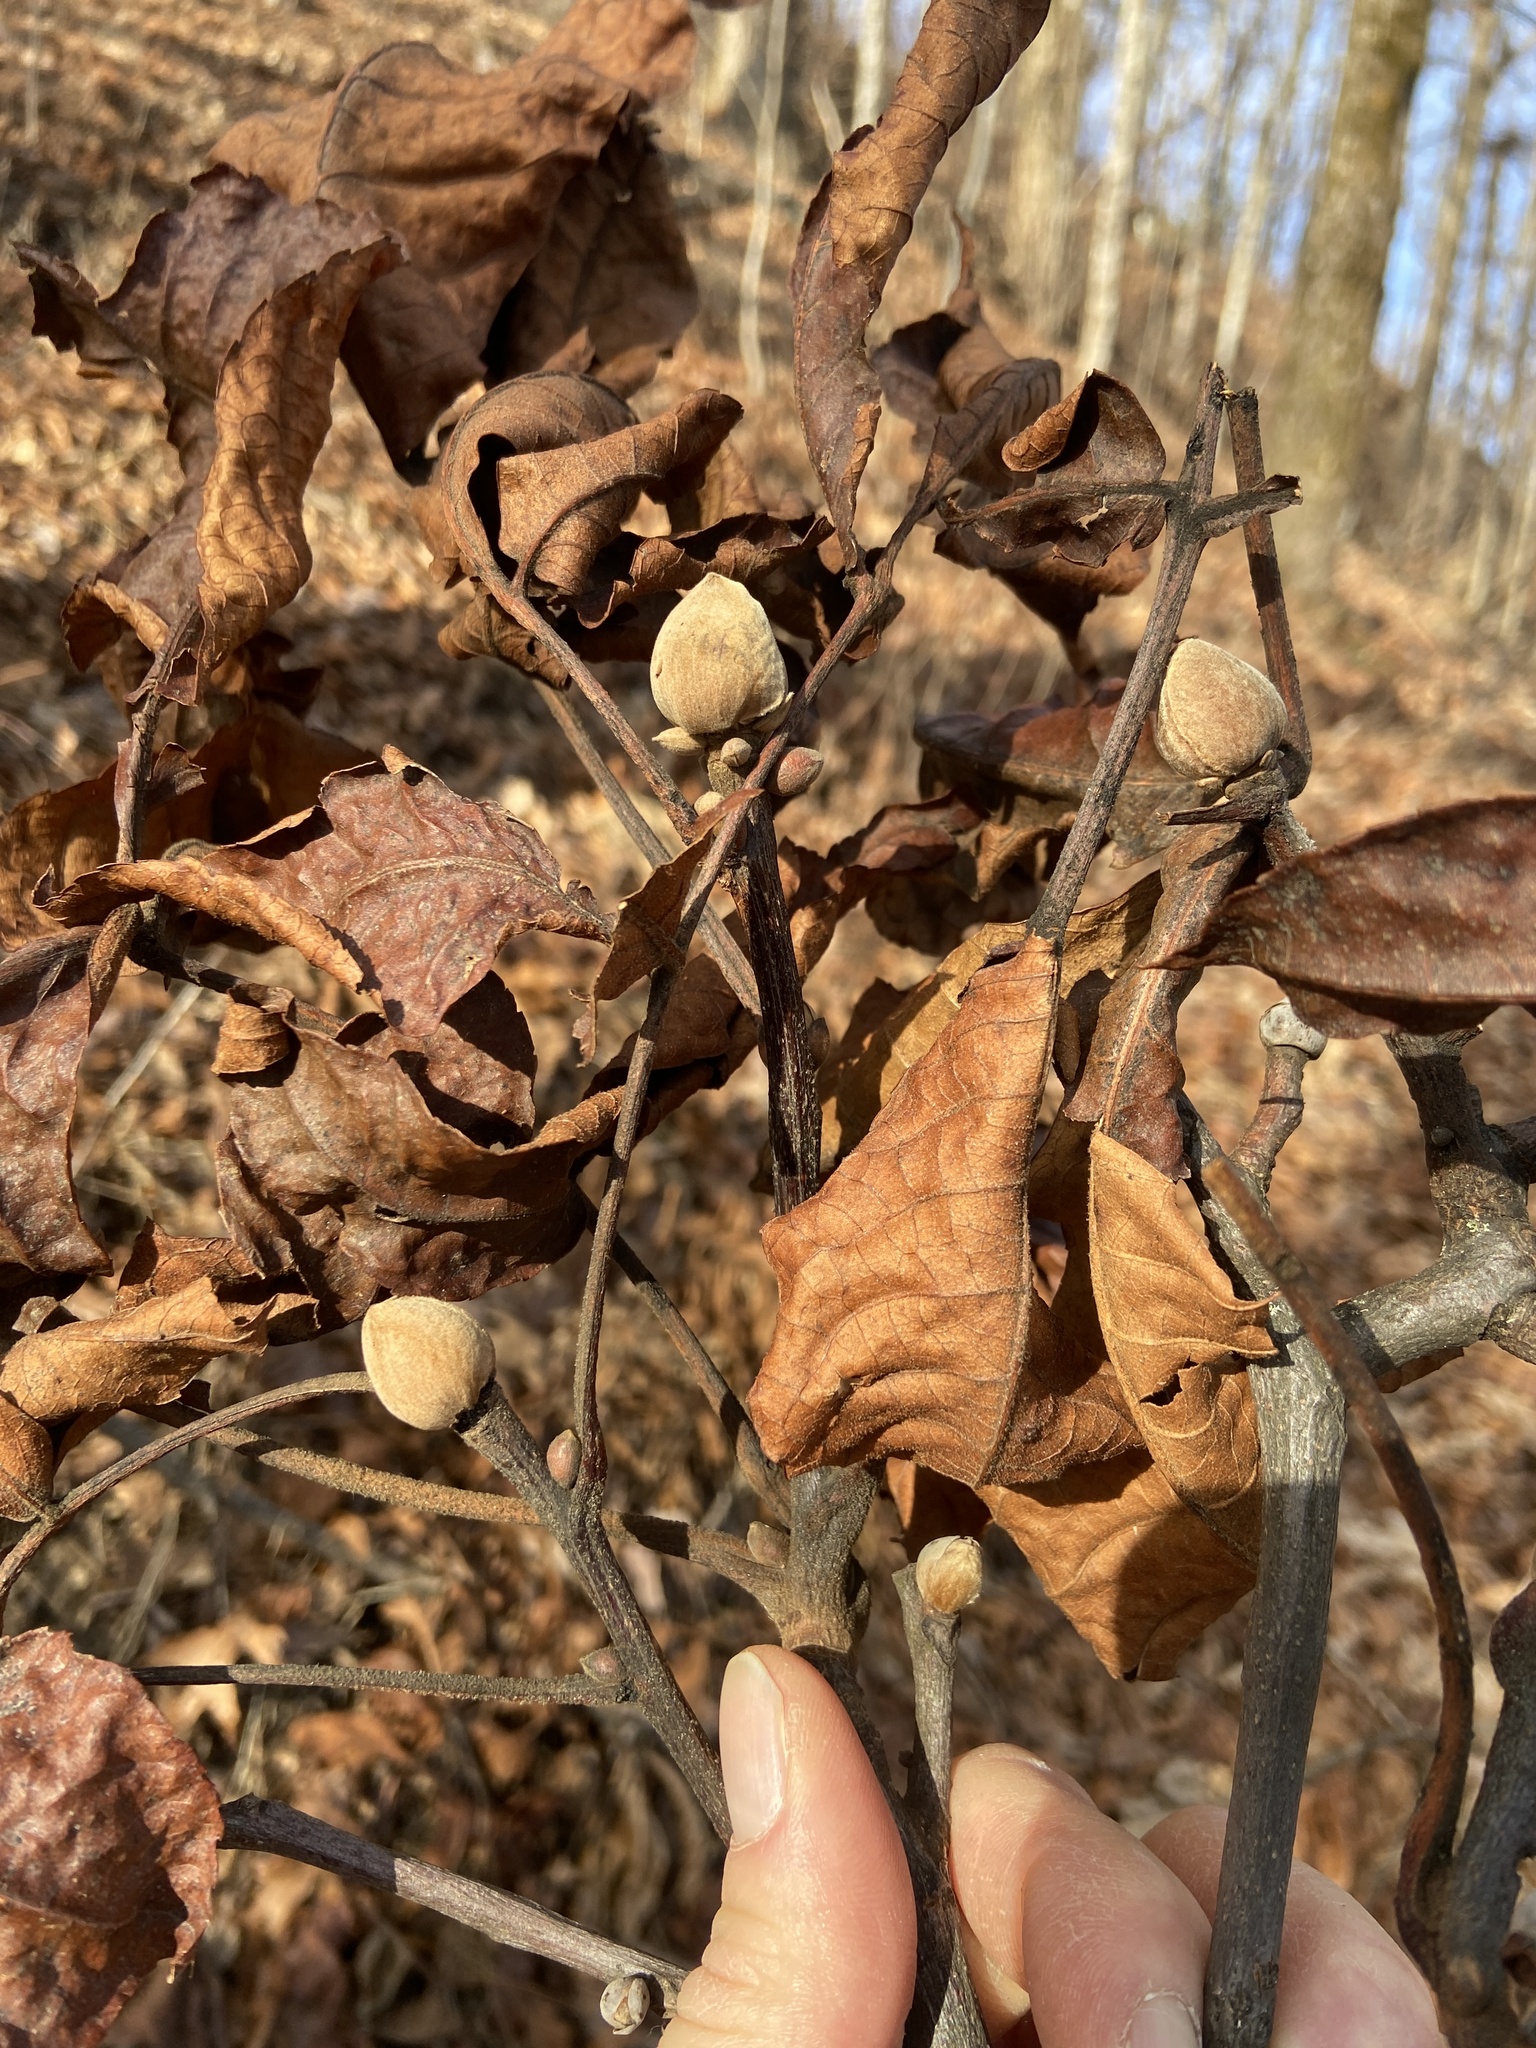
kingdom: Plantae
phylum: Tracheophyta
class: Magnoliopsida
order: Fagales
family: Juglandaceae
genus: Carya
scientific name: Carya alba
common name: Mockernut hickory
